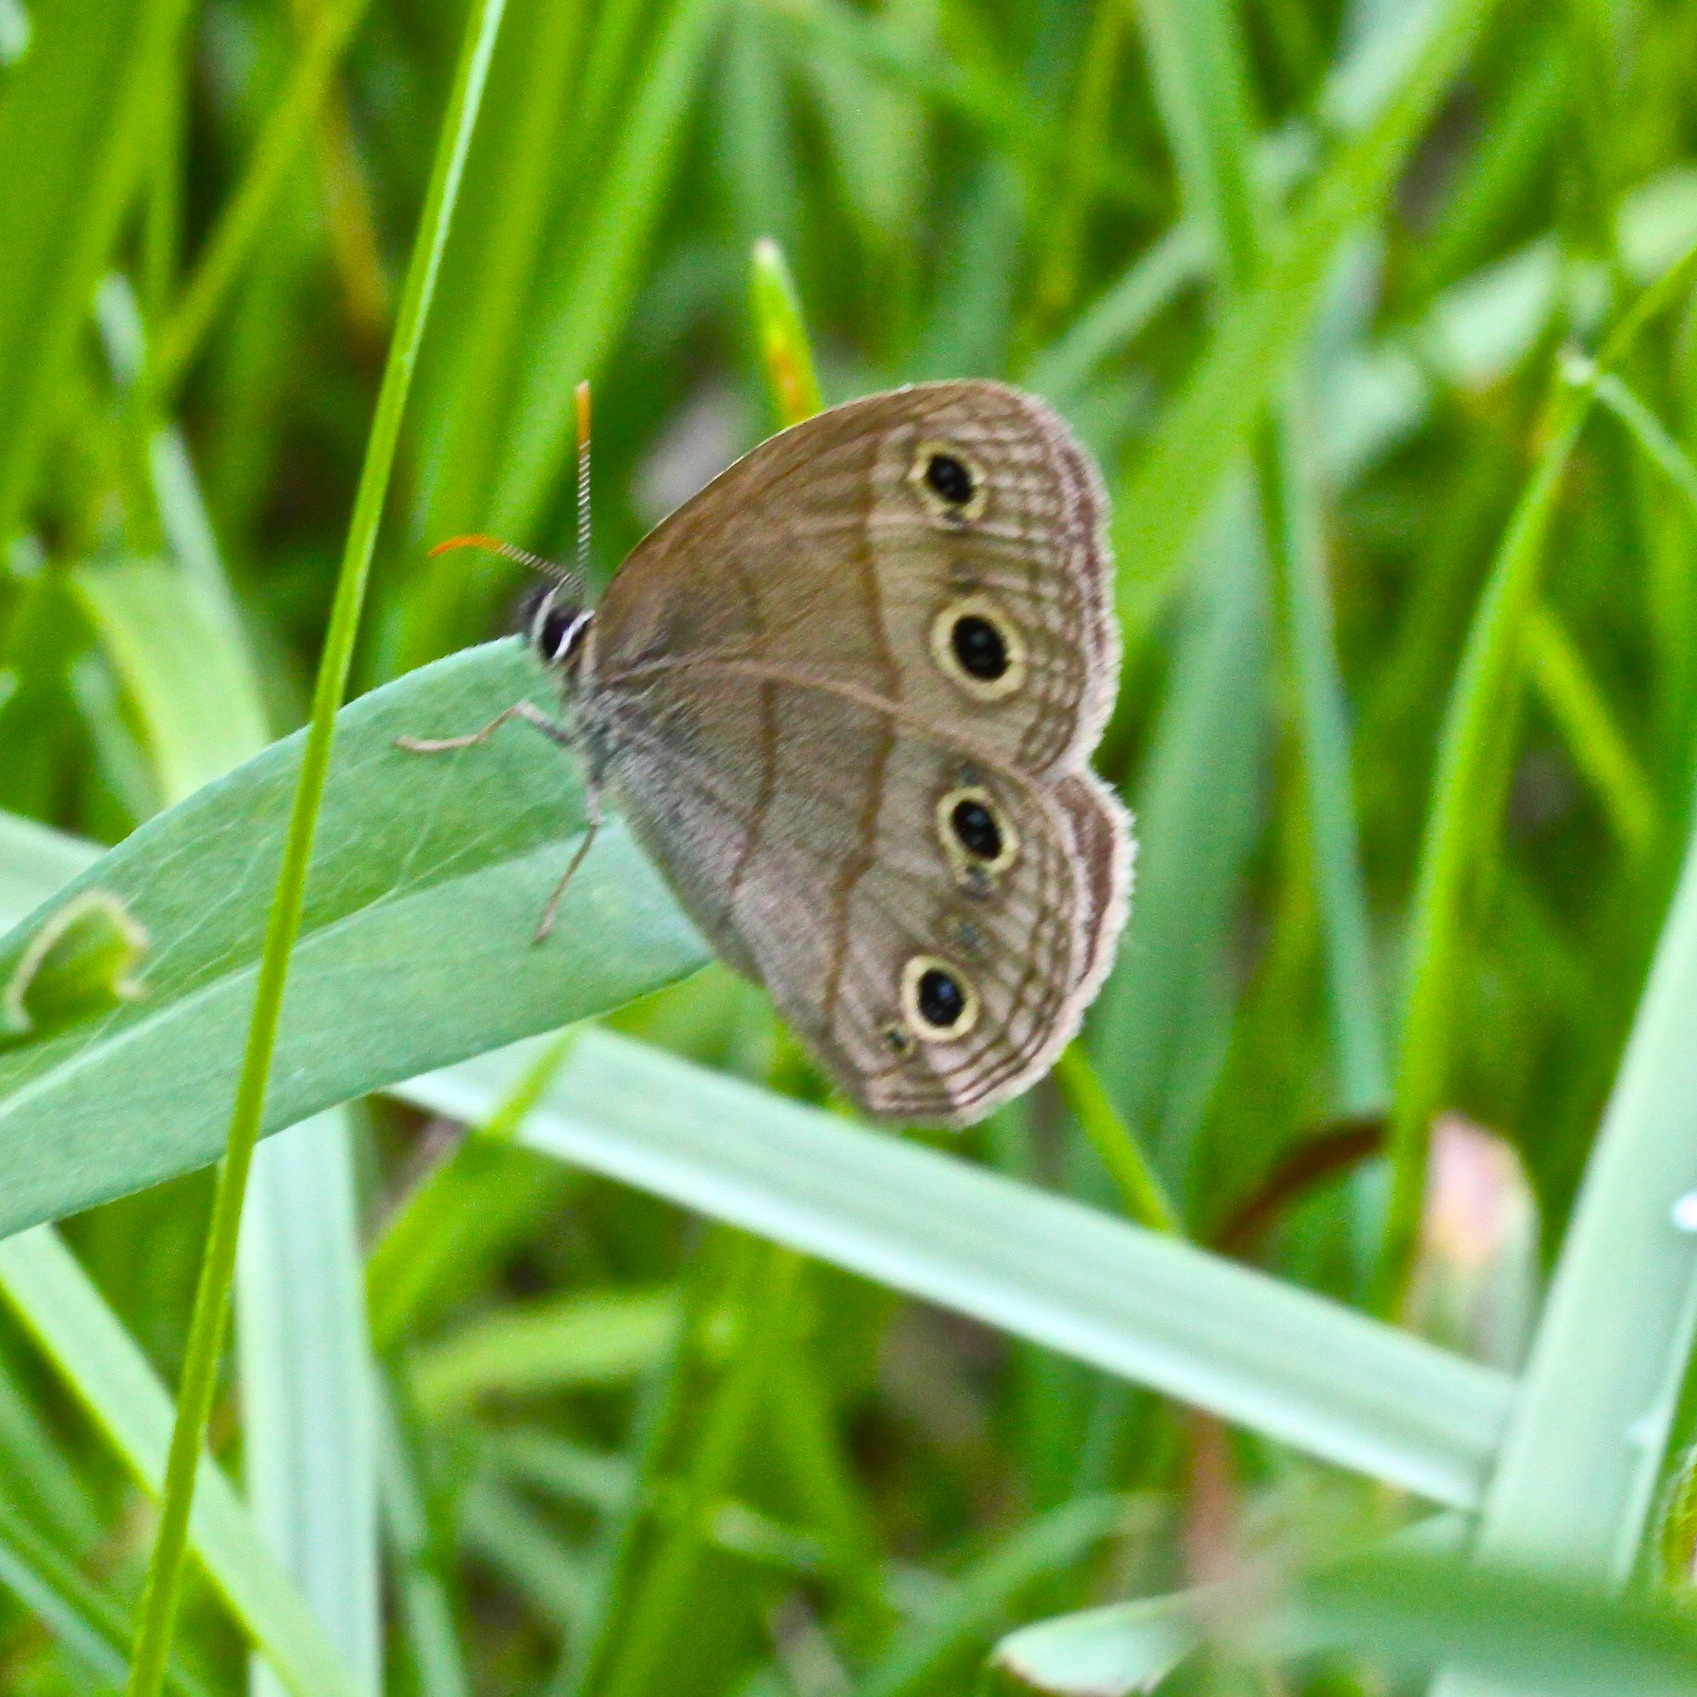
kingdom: Animalia
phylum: Arthropoda
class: Insecta
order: Lepidoptera
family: Nymphalidae
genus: Euptychia
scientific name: Euptychia cymela
